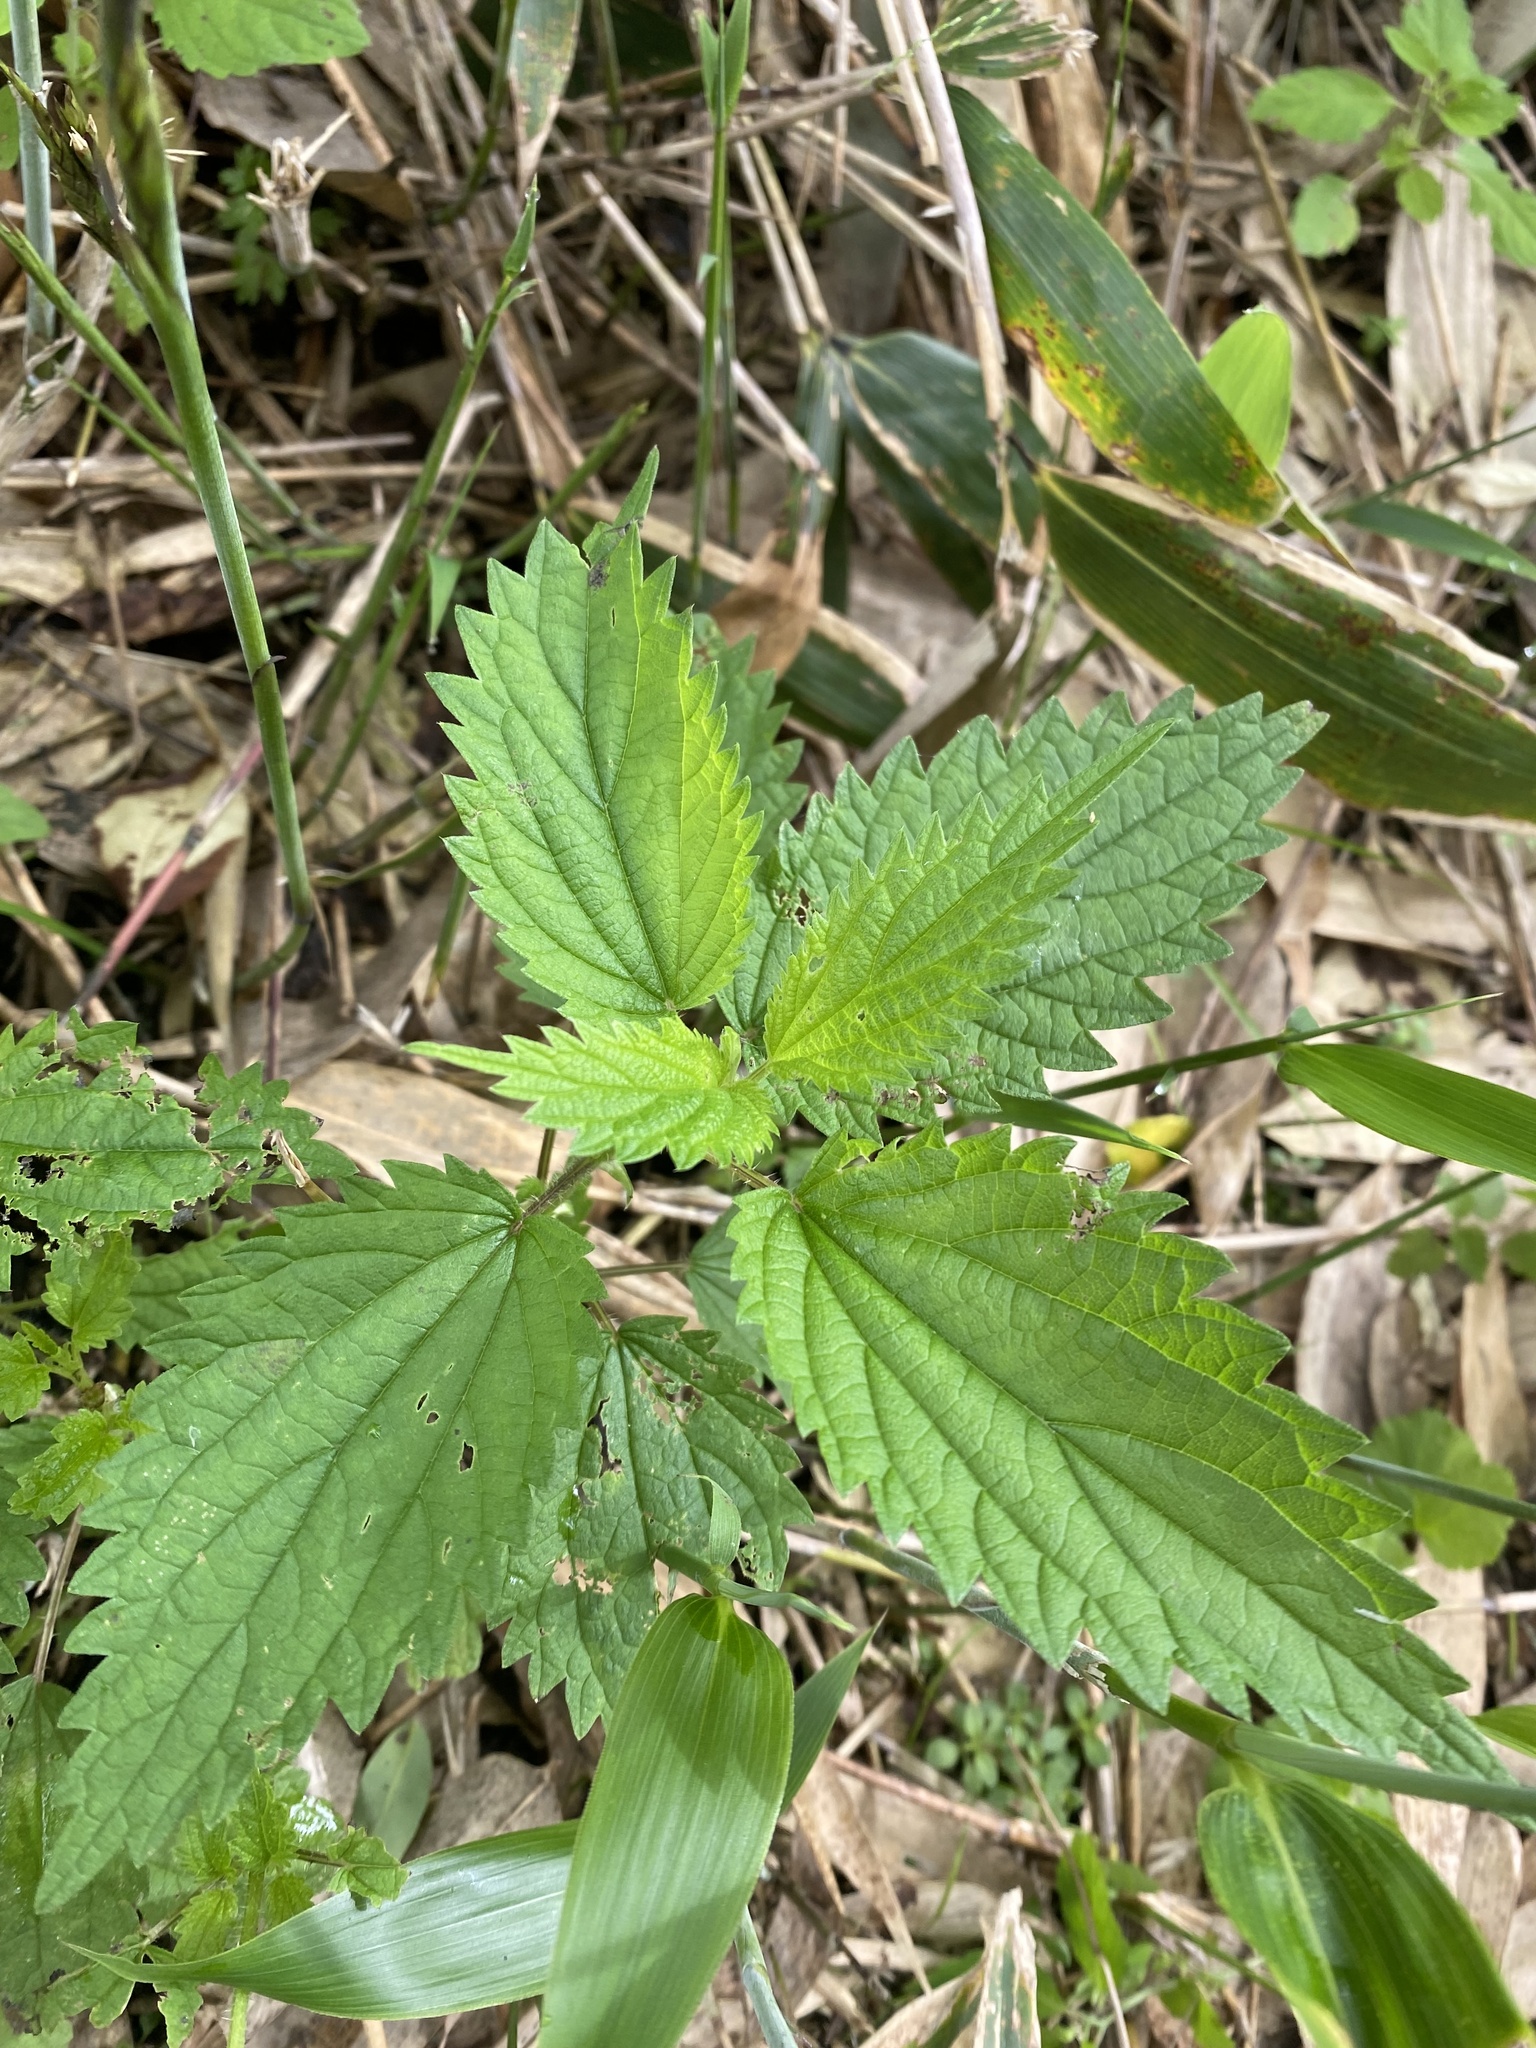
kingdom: Plantae
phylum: Tracheophyta
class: Magnoliopsida
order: Rosales
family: Urticaceae
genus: Urtica
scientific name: Urtica platyphylla
